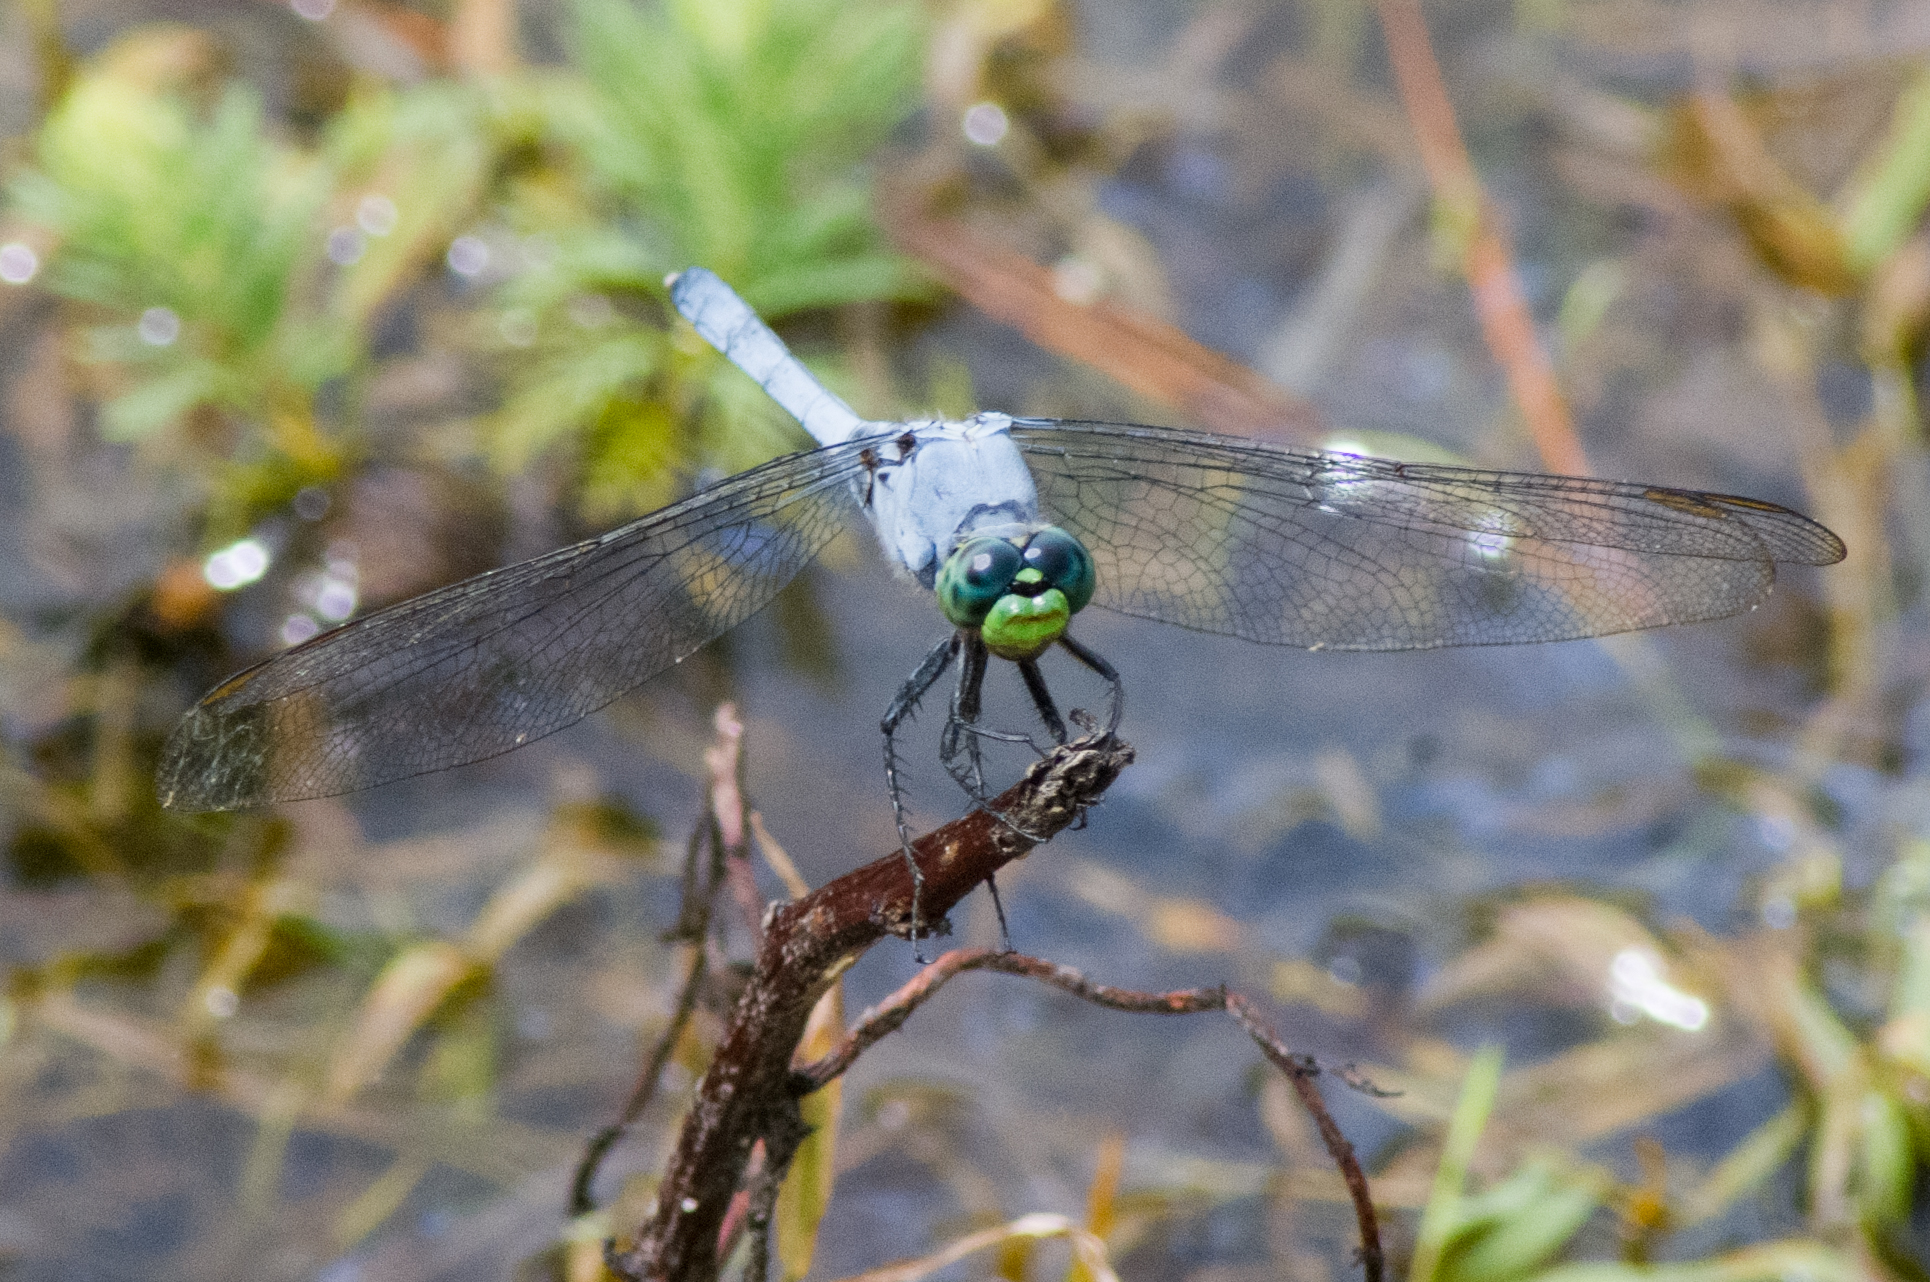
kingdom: Animalia
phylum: Arthropoda
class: Insecta
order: Odonata
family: Libellulidae
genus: Erythemis
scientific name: Erythemis simplicicollis
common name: Eastern pondhawk
